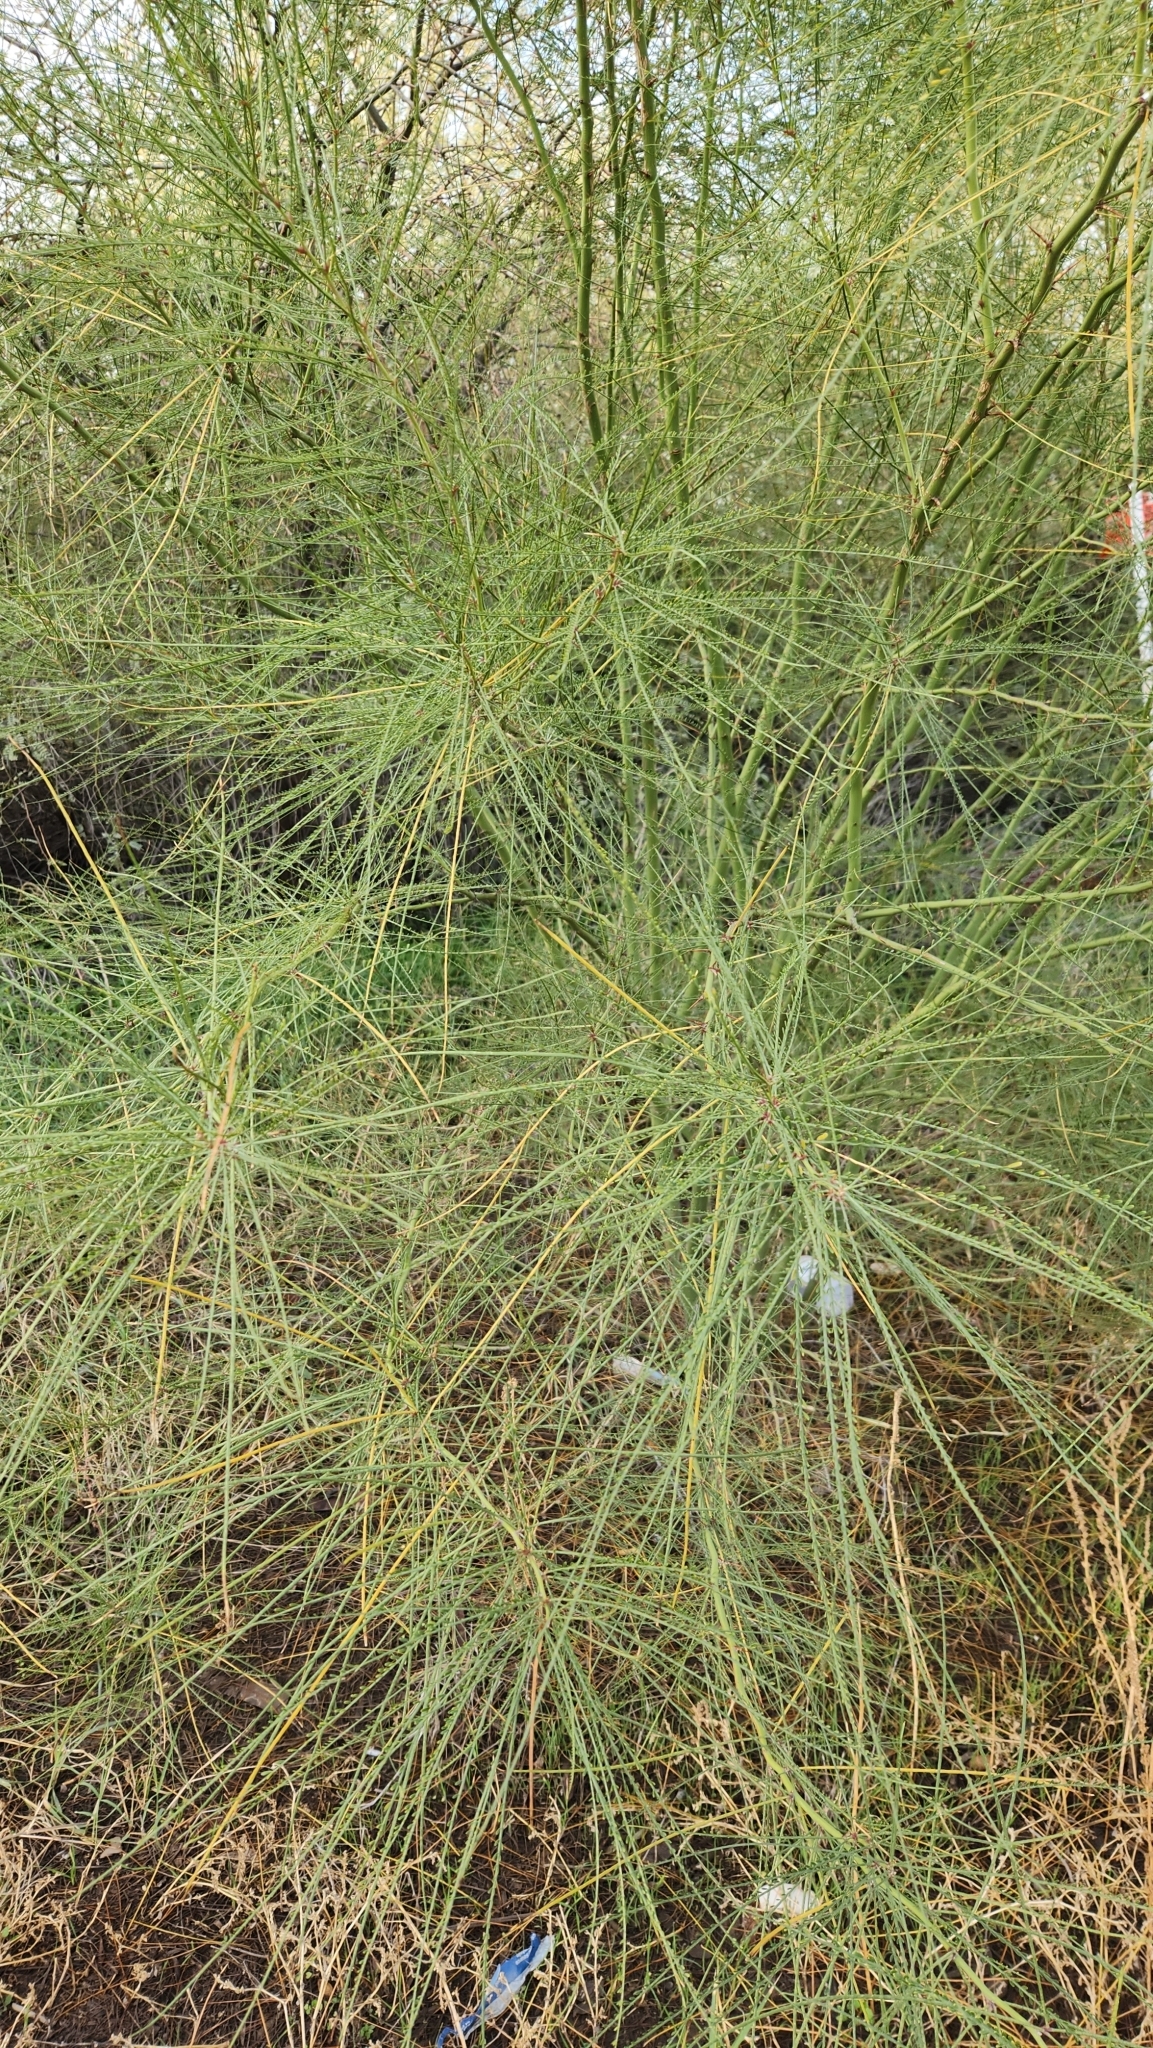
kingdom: Plantae
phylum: Tracheophyta
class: Magnoliopsida
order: Fabales
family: Fabaceae
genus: Parkinsonia
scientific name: Parkinsonia aculeata
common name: Jerusalem thorn
